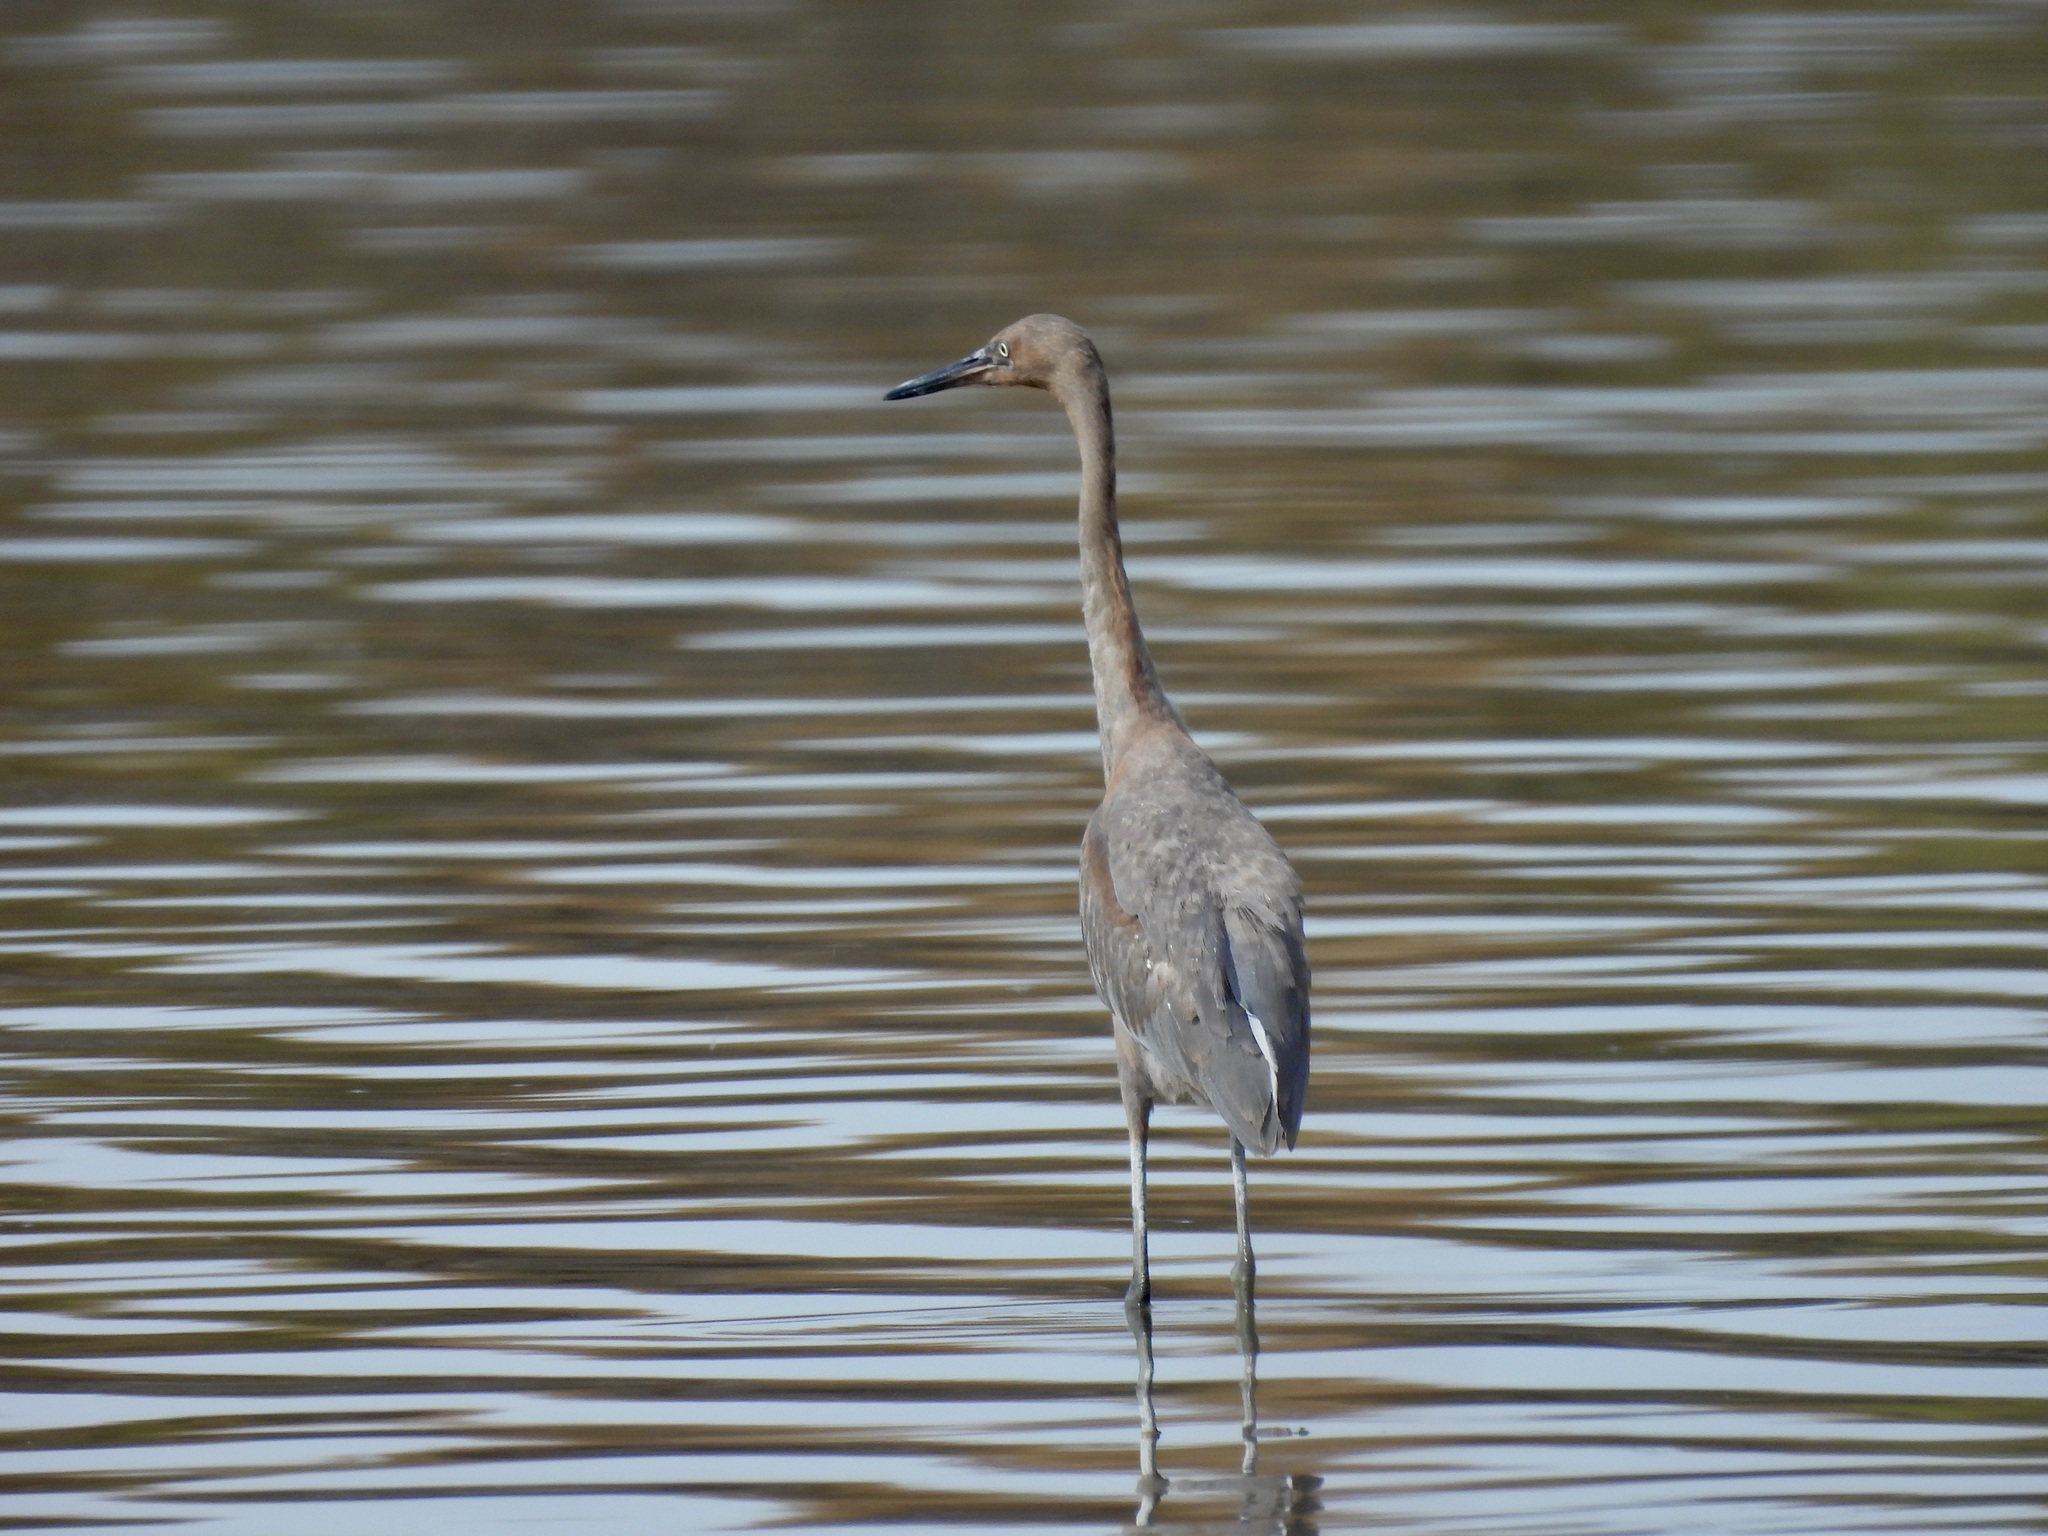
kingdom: Animalia
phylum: Chordata
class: Aves
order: Pelecaniformes
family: Ardeidae
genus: Egretta
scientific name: Egretta rufescens
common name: Reddish egret
